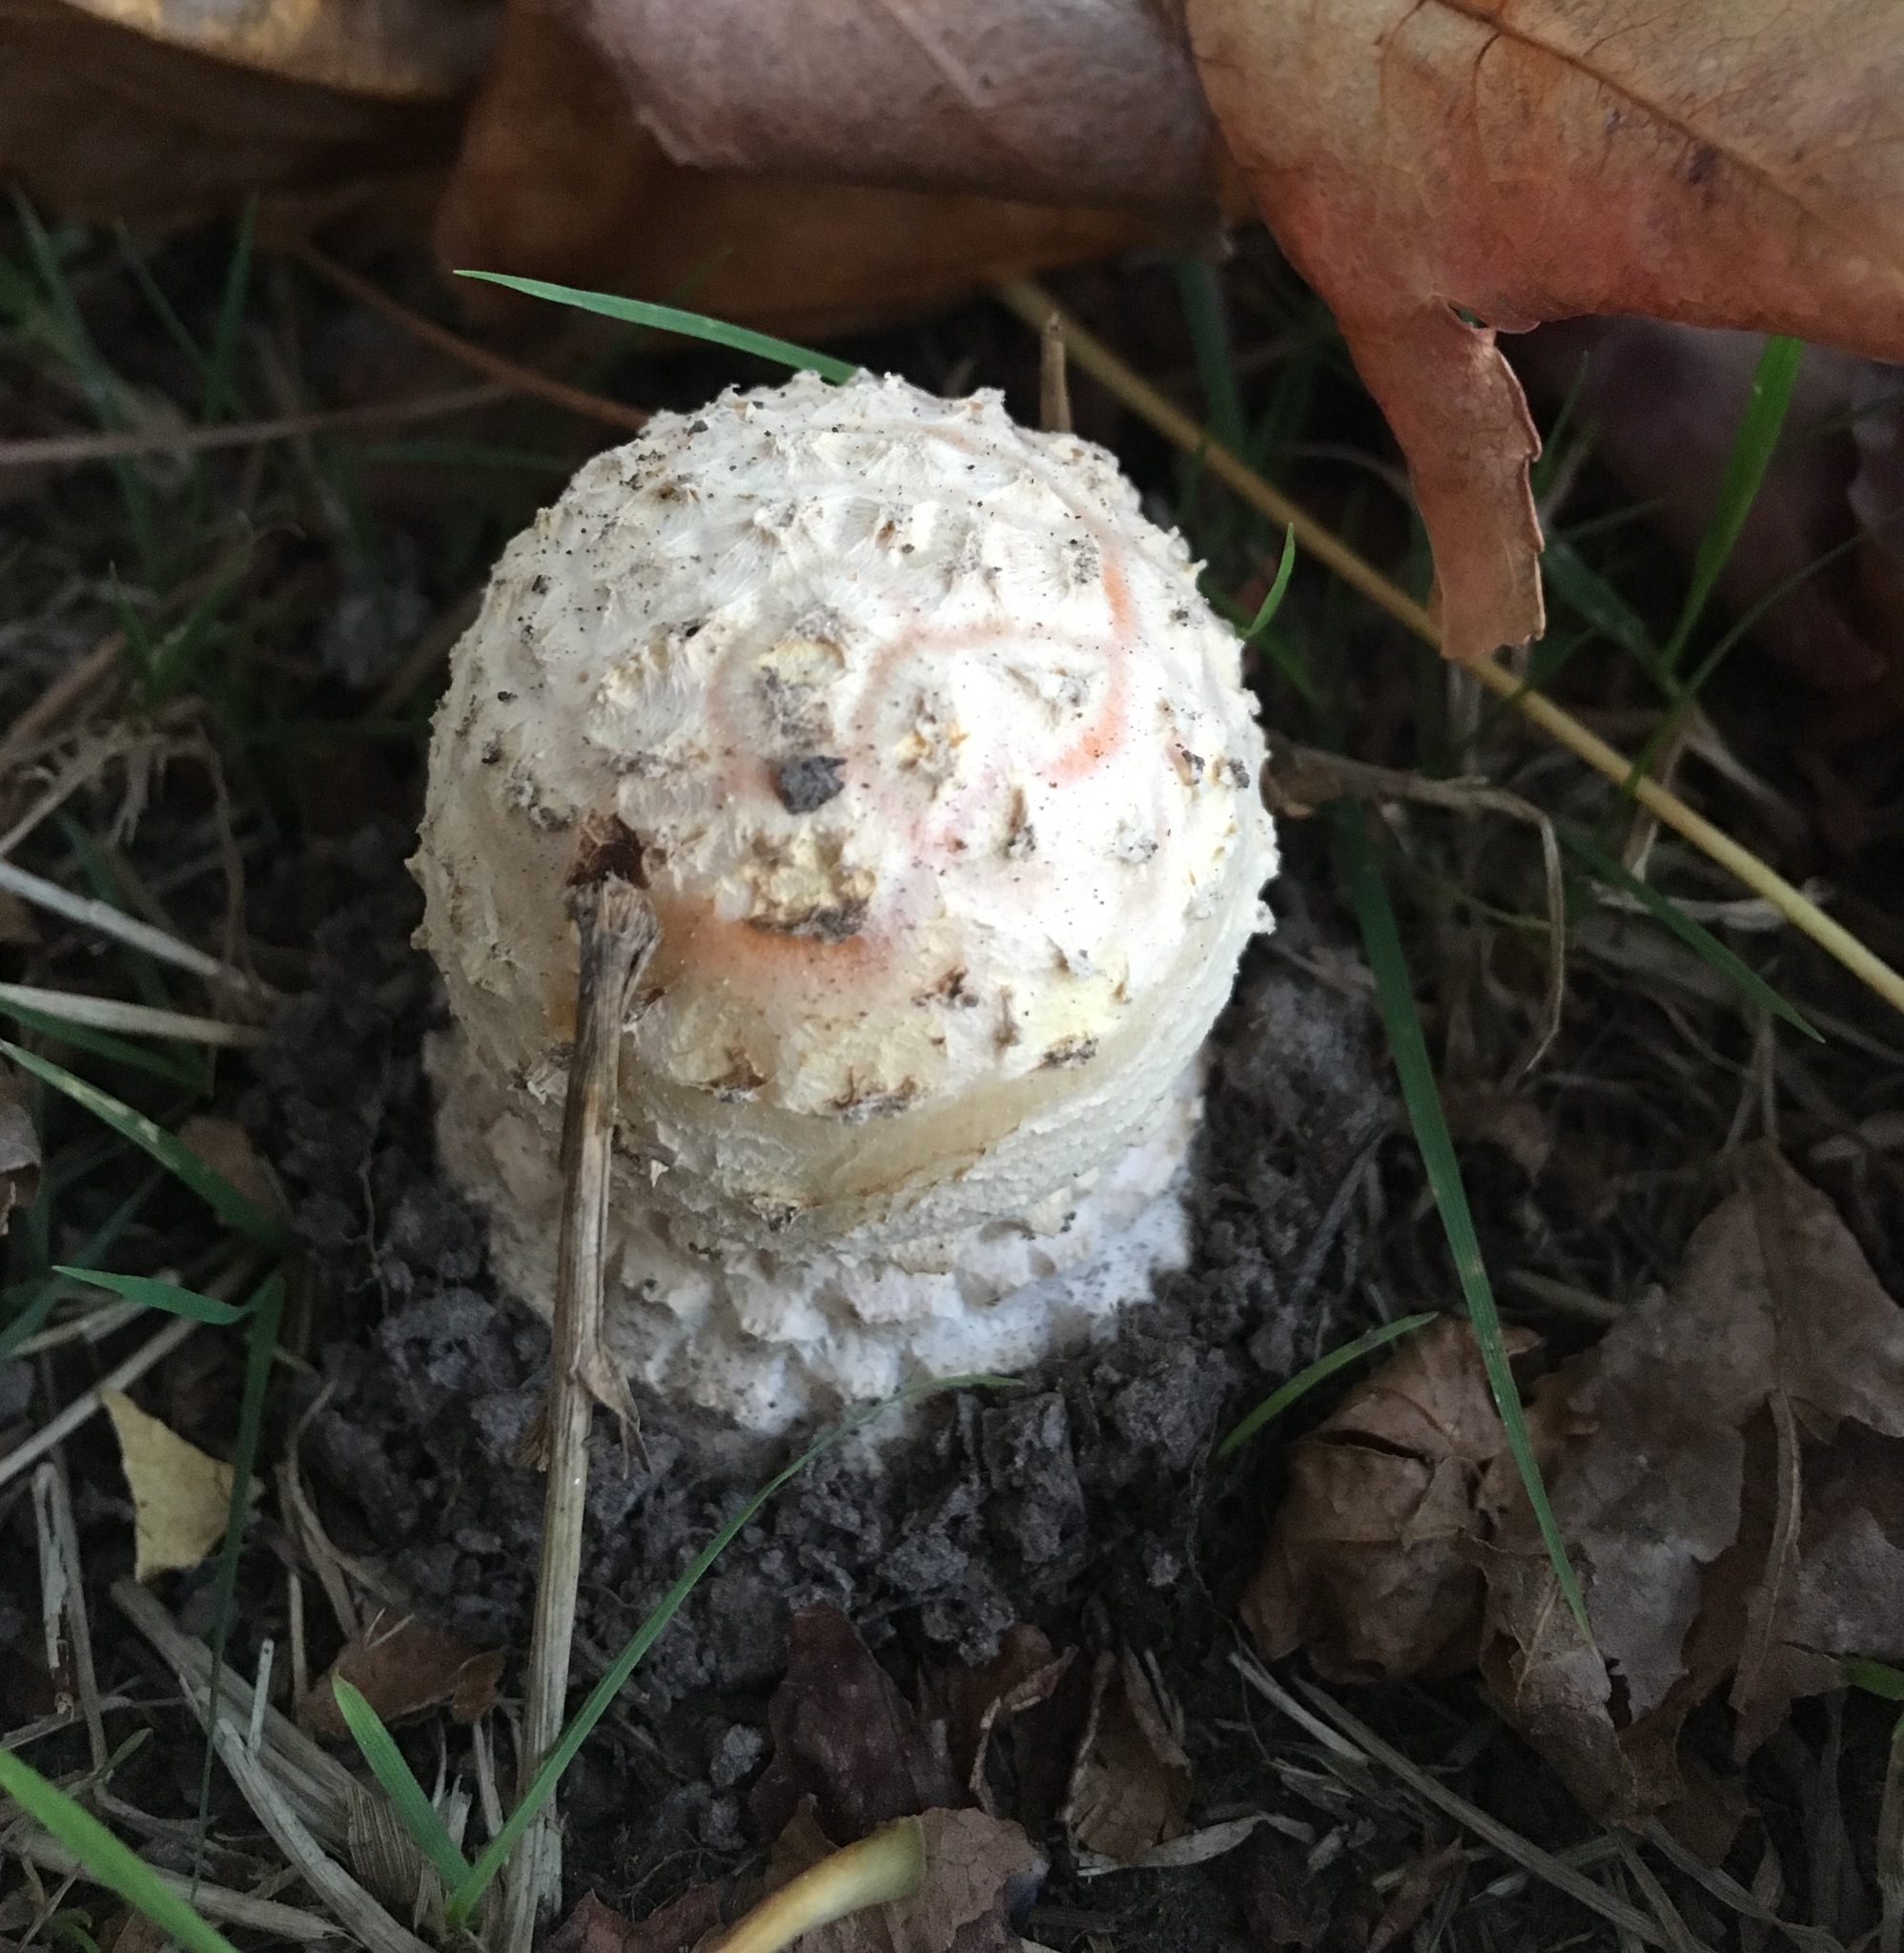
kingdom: Fungi
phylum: Basidiomycota
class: Agaricomycetes
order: Agaricales
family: Amanitaceae
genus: Amanita
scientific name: Amanita muscaria
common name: Fly agaric
